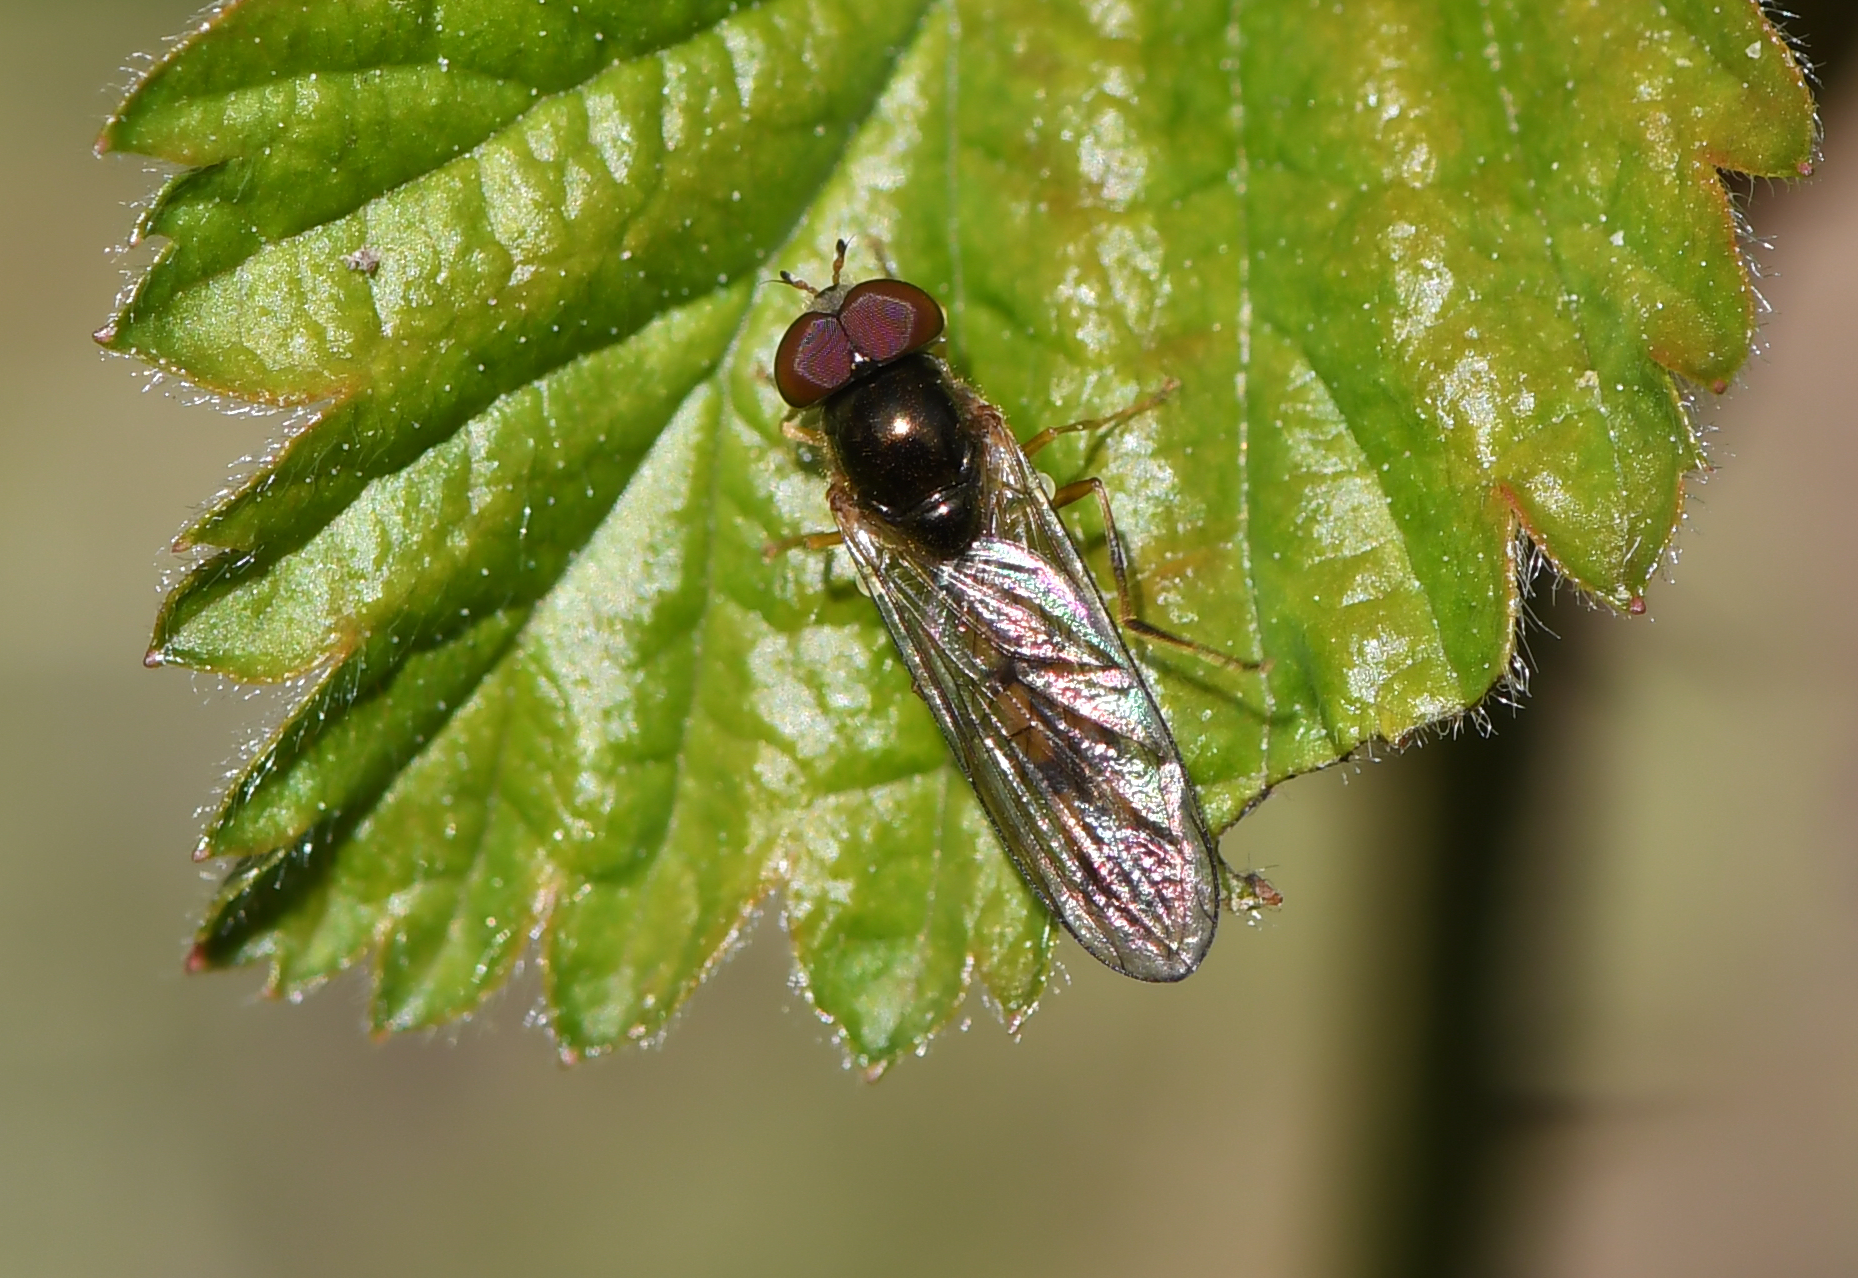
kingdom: Animalia
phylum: Arthropoda
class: Insecta
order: Diptera
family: Syrphidae
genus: Melanostoma
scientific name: Melanostoma scalare
